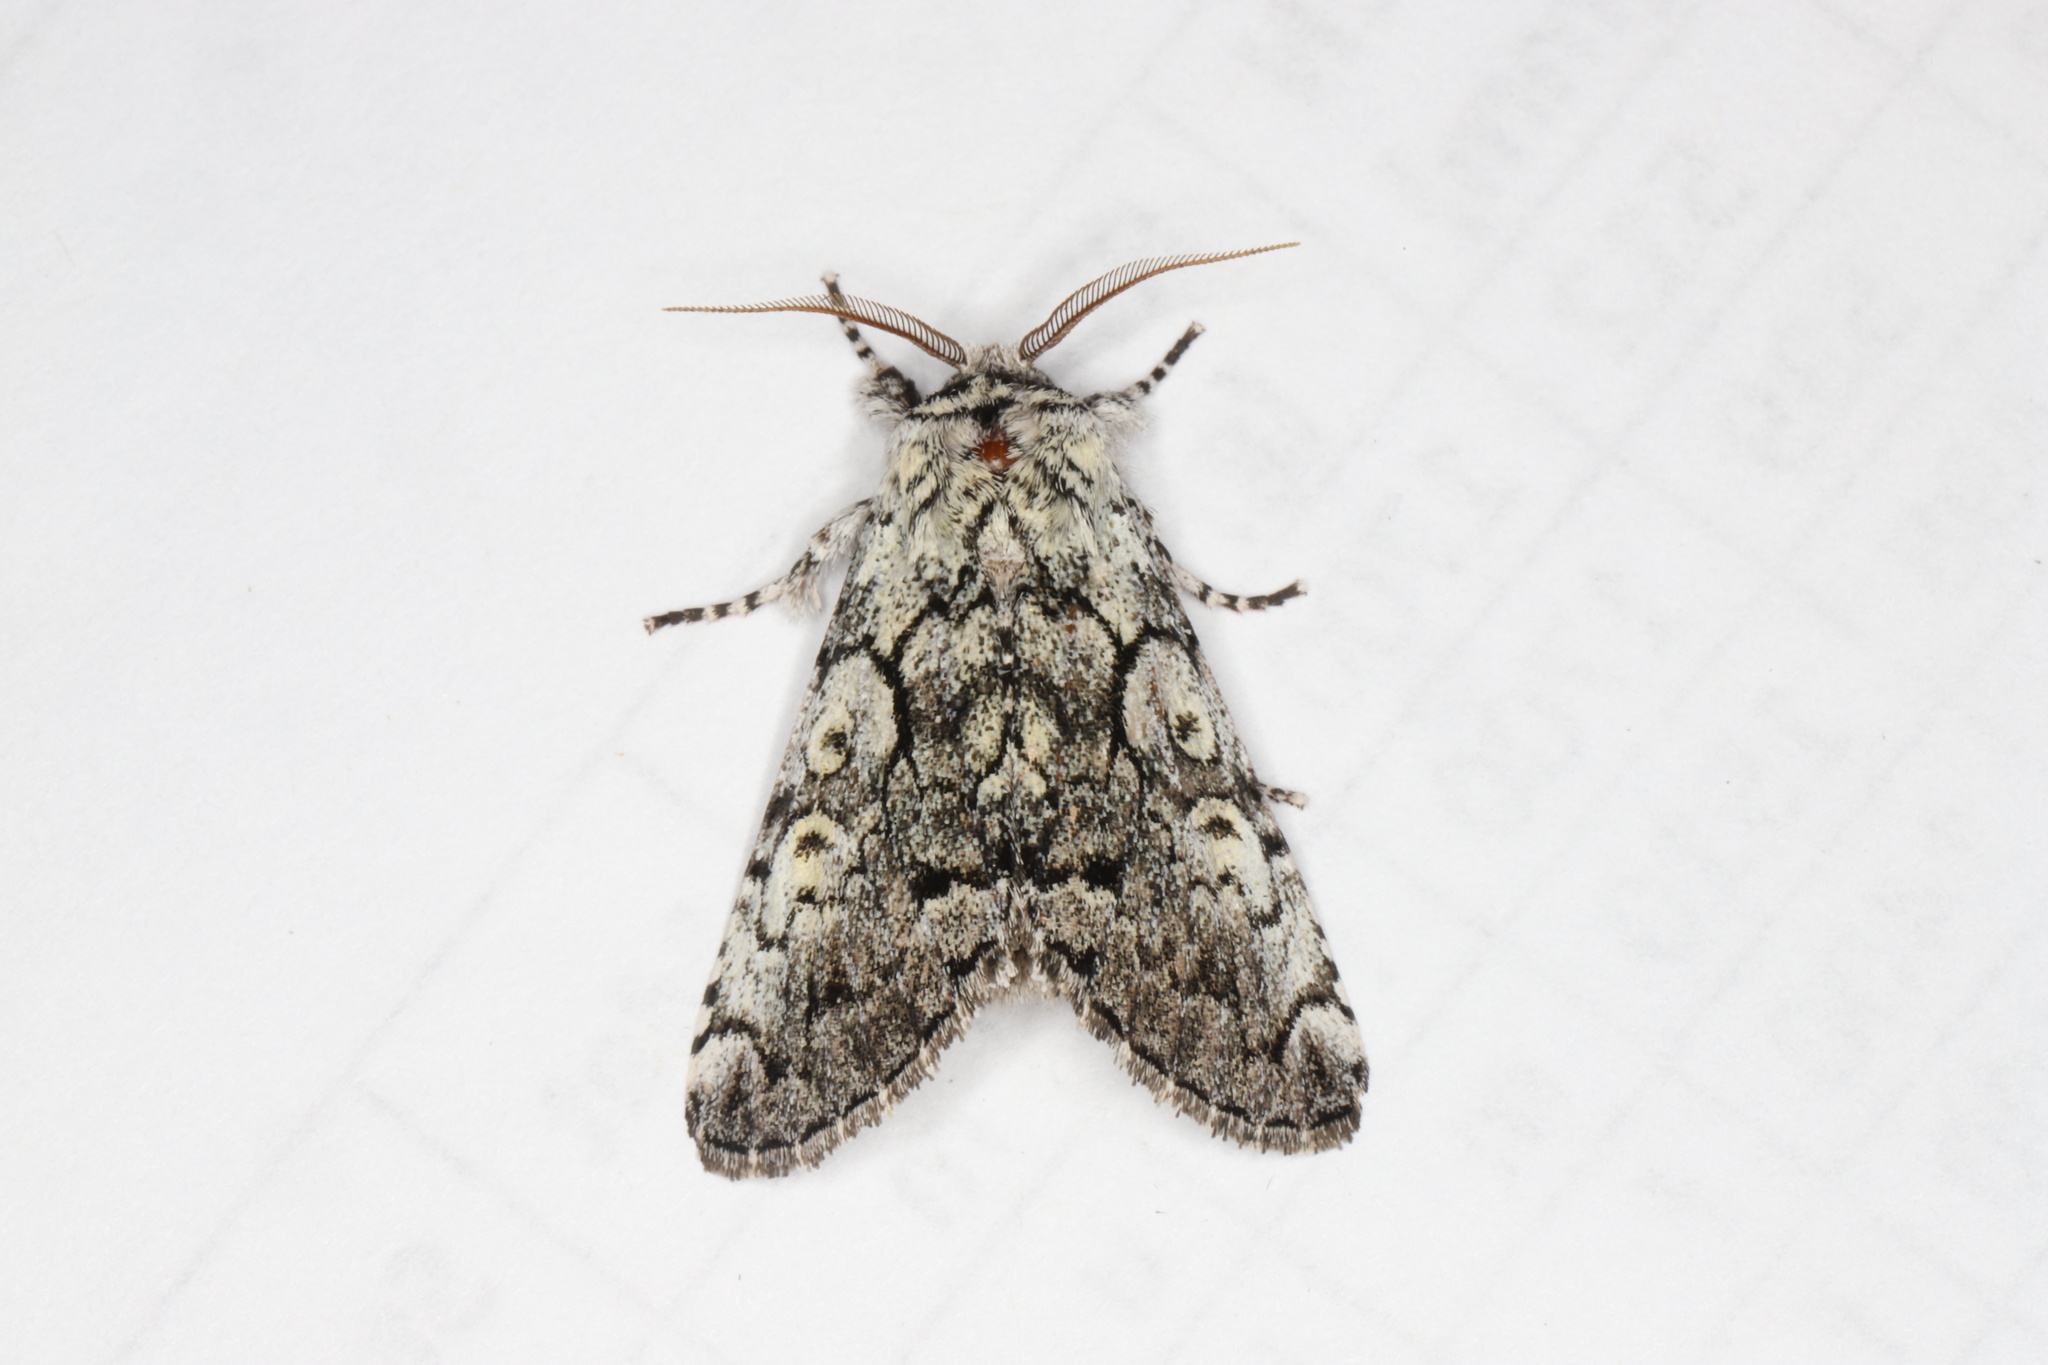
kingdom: Animalia
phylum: Arthropoda
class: Insecta
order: Lepidoptera
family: Noctuidae
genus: Charadra
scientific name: Charadra deridens
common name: Marbled tuffet
